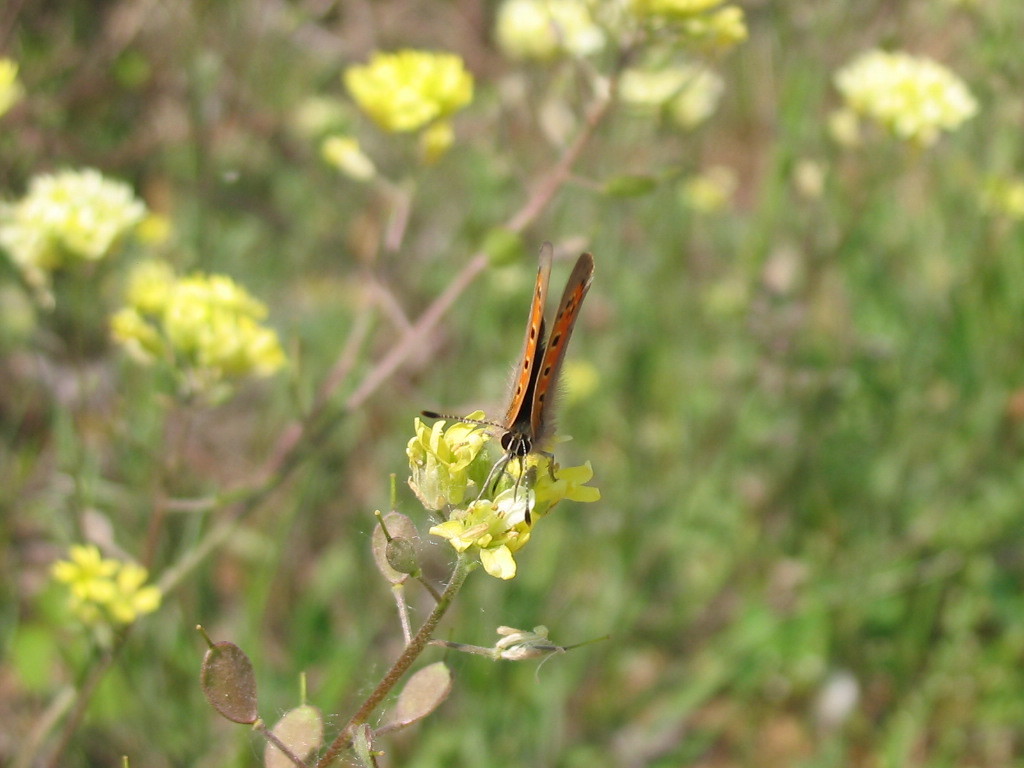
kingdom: Animalia
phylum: Arthropoda
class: Insecta
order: Lepidoptera
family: Lycaenidae
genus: Lycaena
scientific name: Lycaena phlaeas
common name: Small copper
